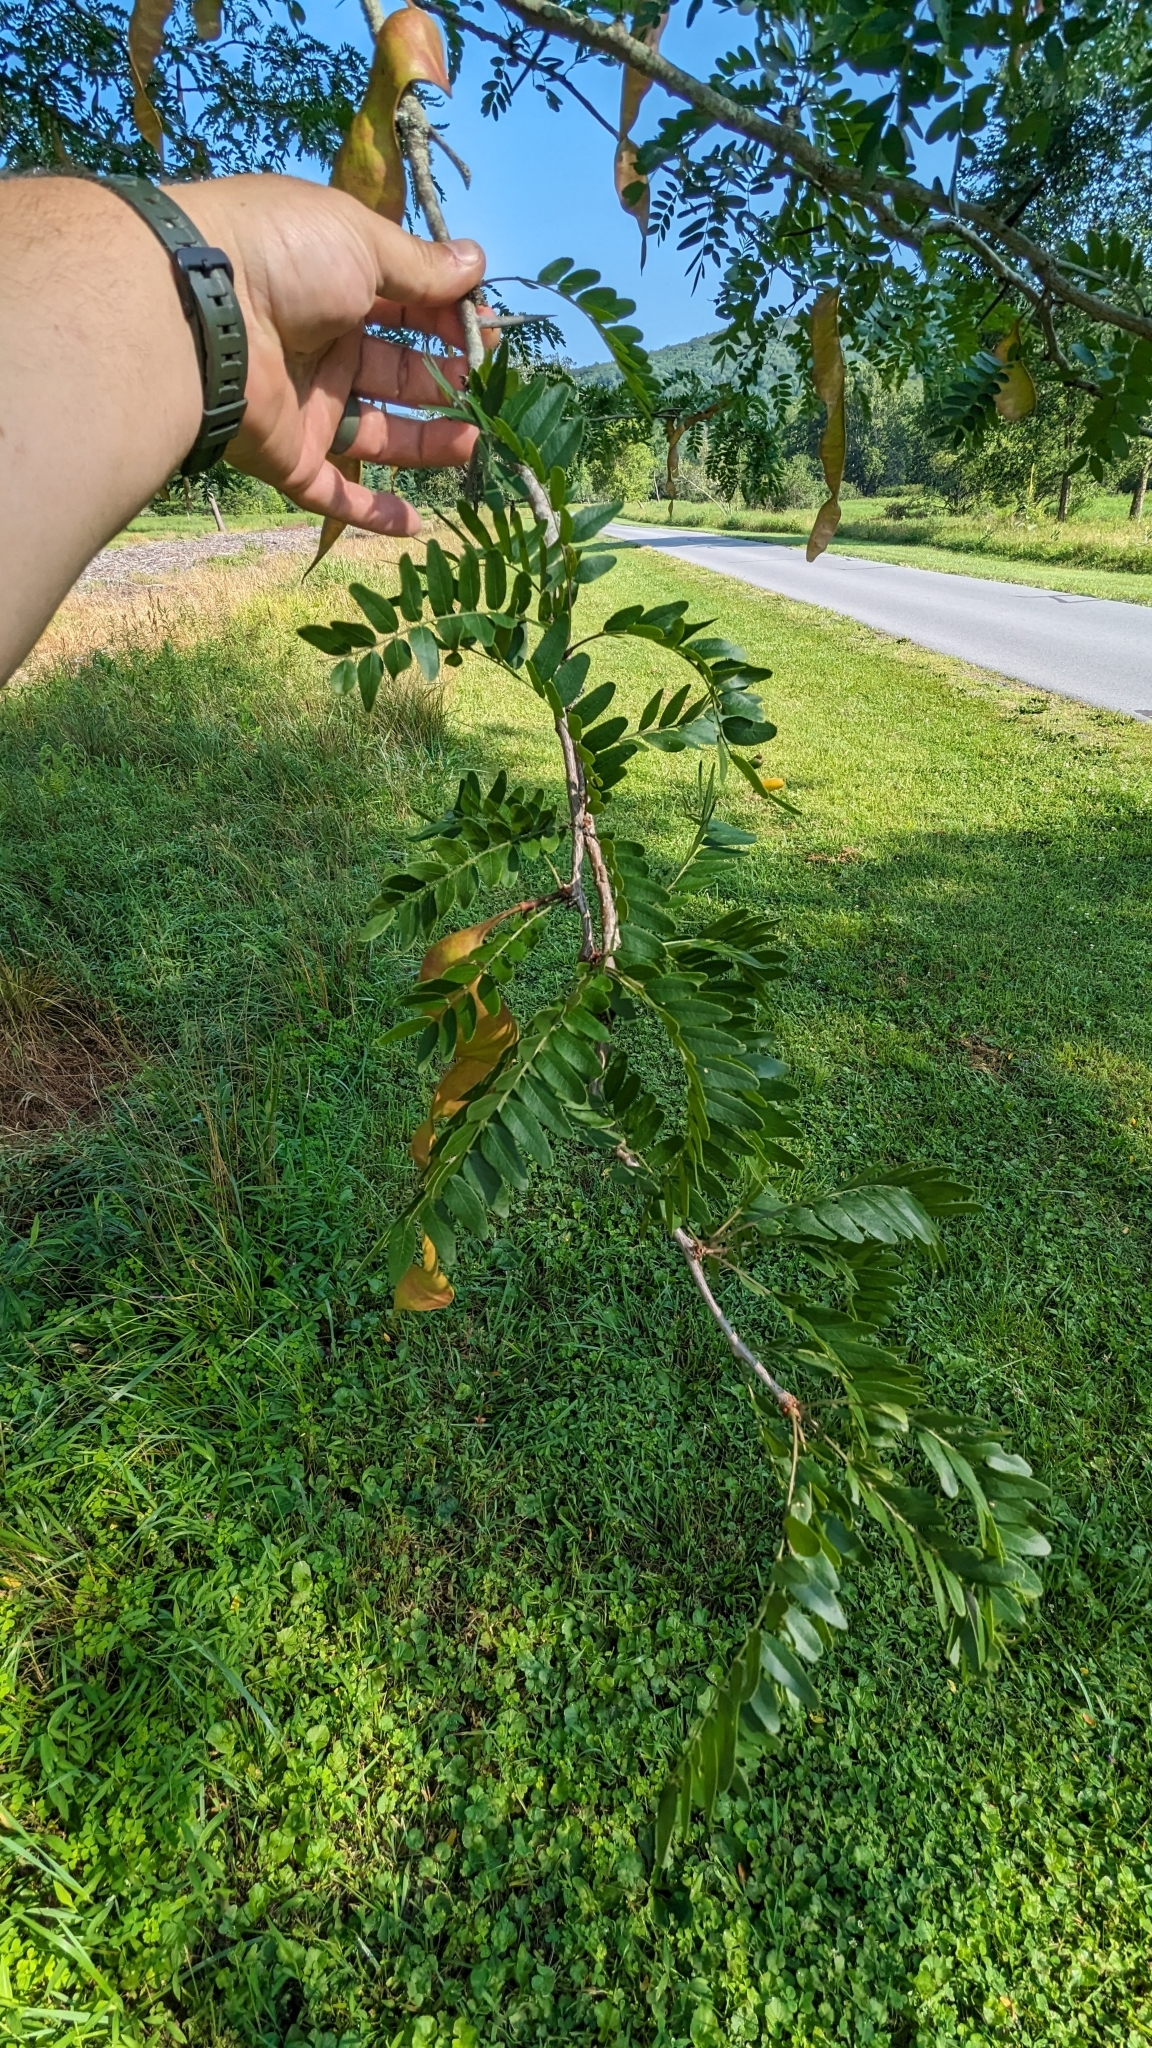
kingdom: Plantae
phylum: Tracheophyta
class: Magnoliopsida
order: Fabales
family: Fabaceae
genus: Gleditsia
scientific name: Gleditsia triacanthos
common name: Common honeylocust
